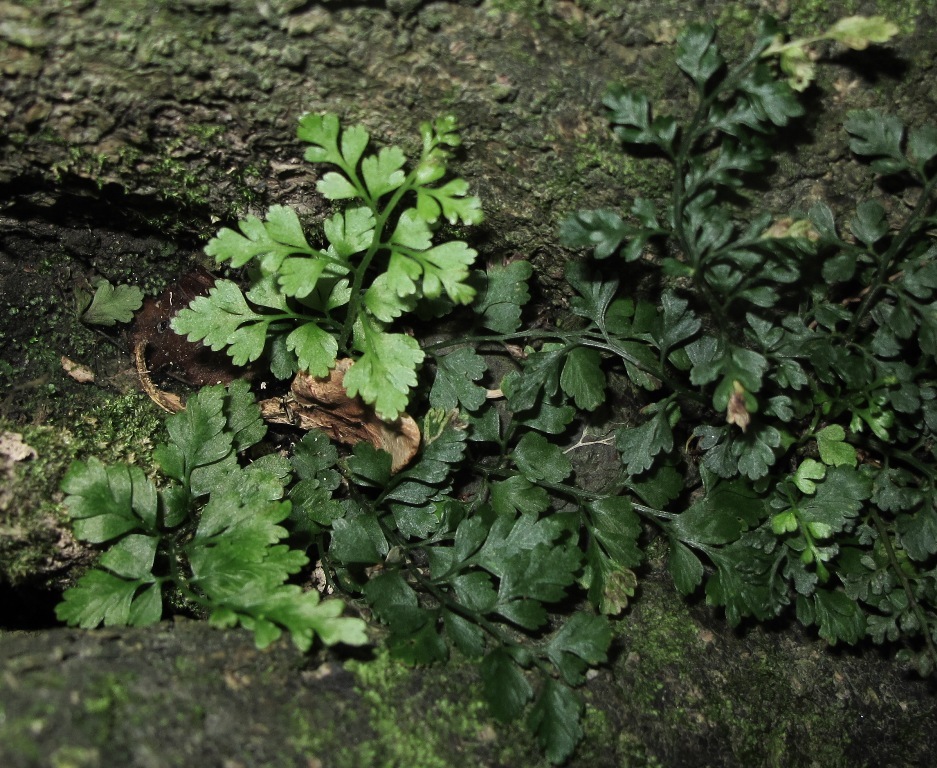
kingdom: Plantae
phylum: Tracheophyta
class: Polypodiopsida
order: Polypodiales
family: Aspleniaceae
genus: Asplenium
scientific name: Asplenium hookerianum
